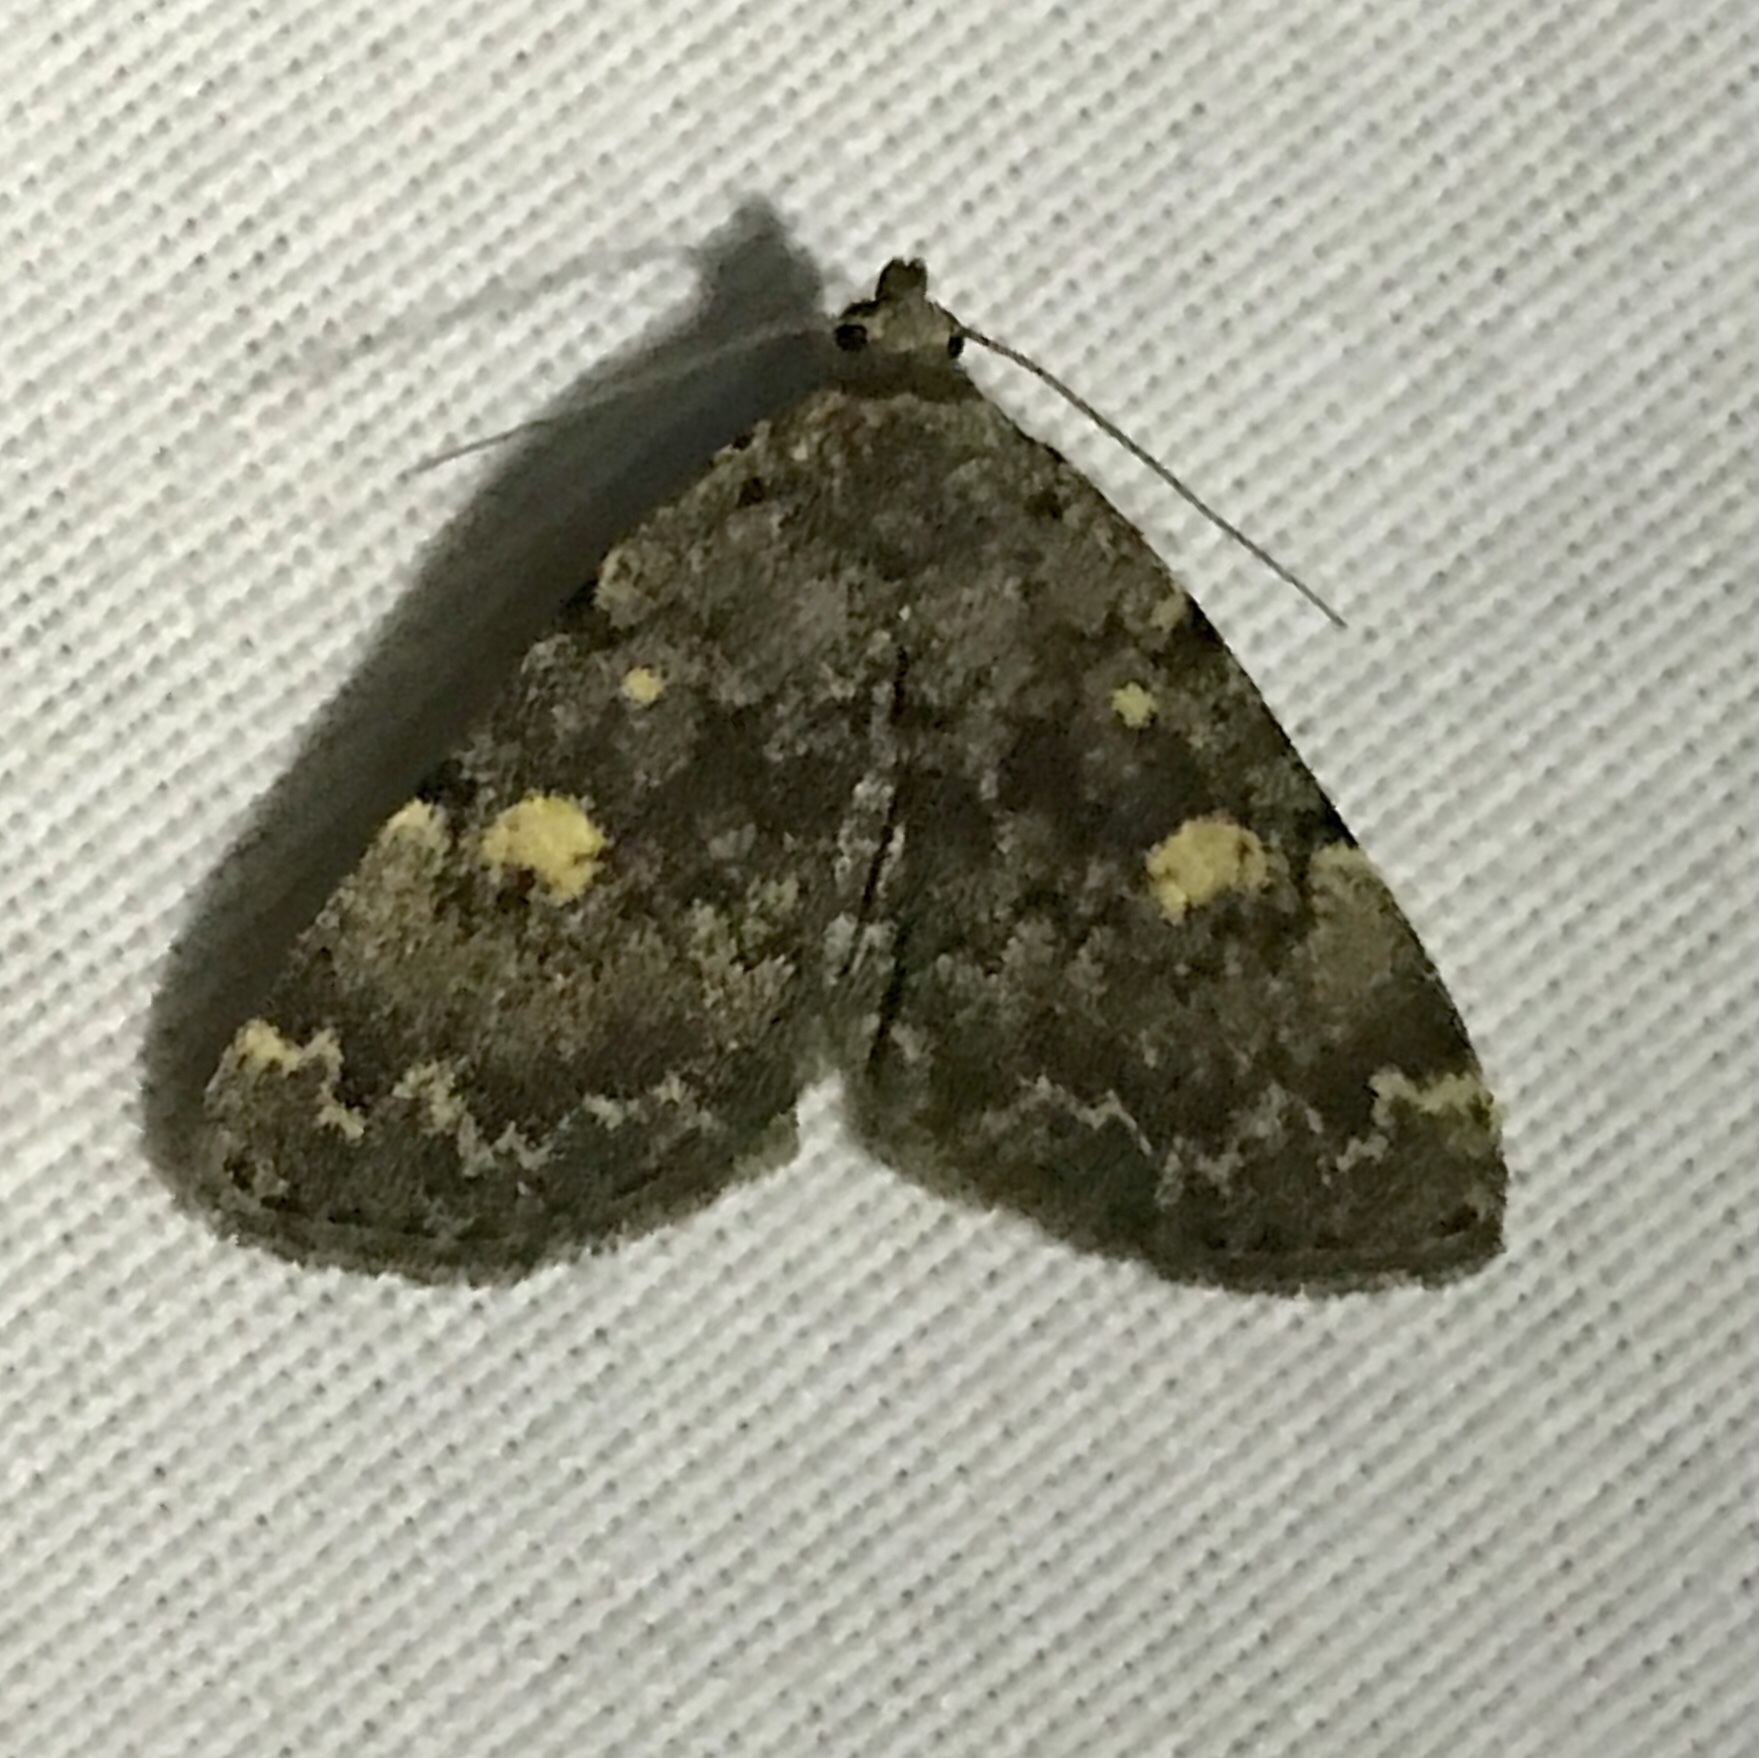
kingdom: Animalia
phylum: Arthropoda
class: Insecta
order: Lepidoptera
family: Erebidae
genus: Idia
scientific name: Idia aemula
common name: Common idia moth
